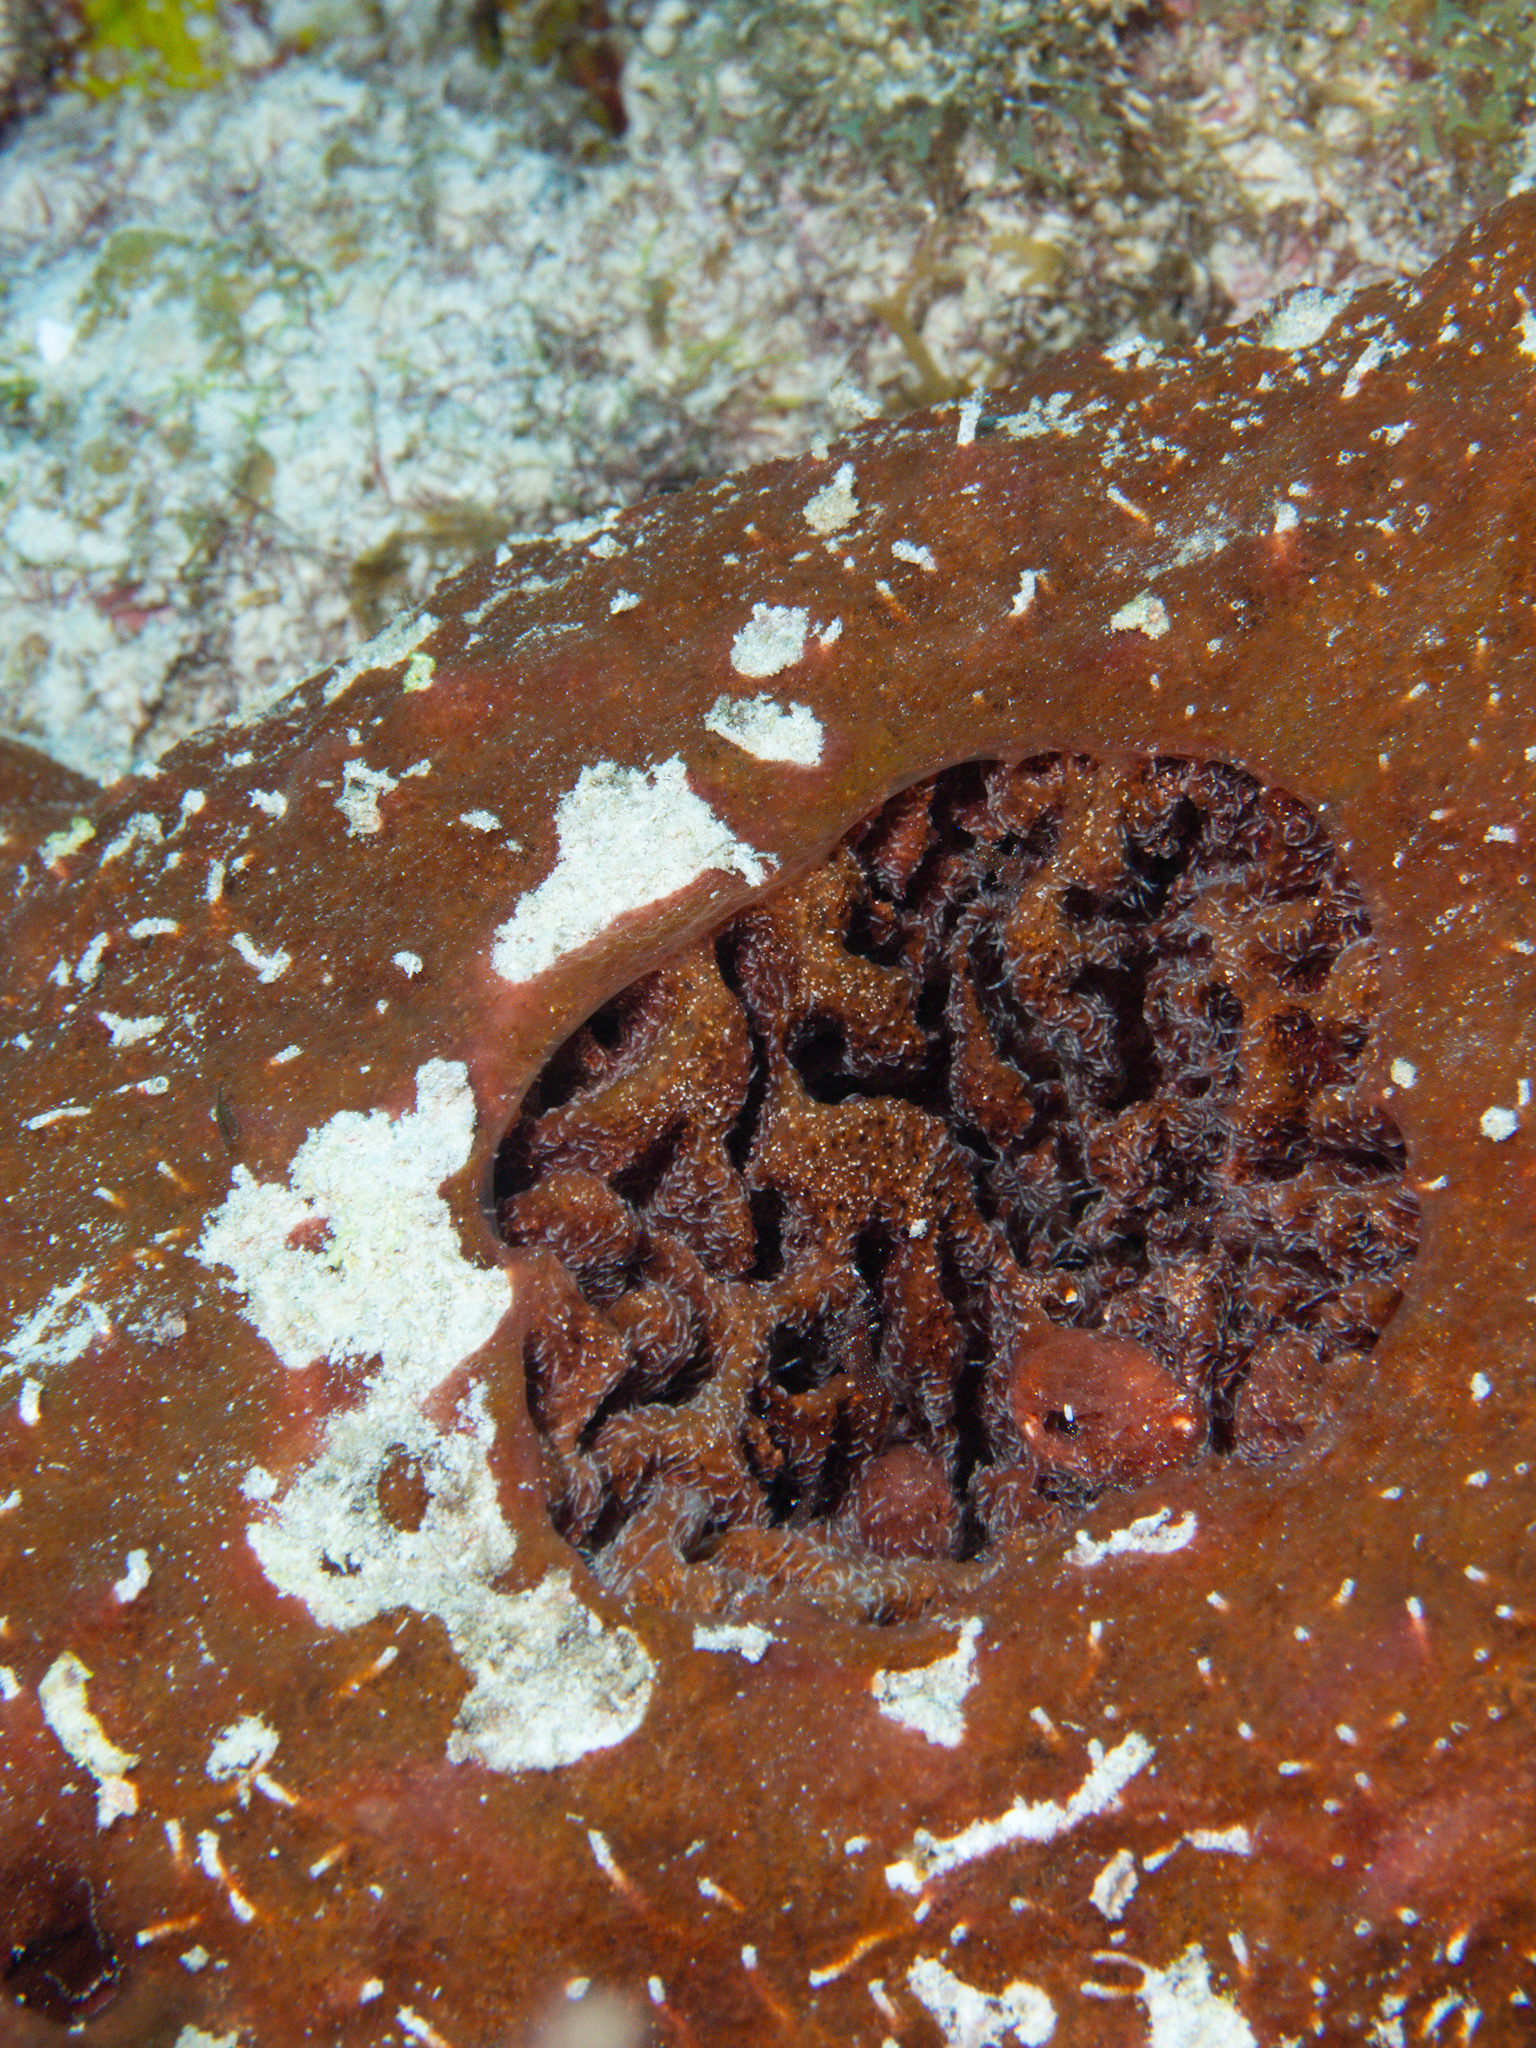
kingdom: Animalia
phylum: Porifera
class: Demospongiae
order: Biemnida
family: Biemnidae
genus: Neofibularia
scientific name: Neofibularia nolitangere
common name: Do-not-touch-me sponge
